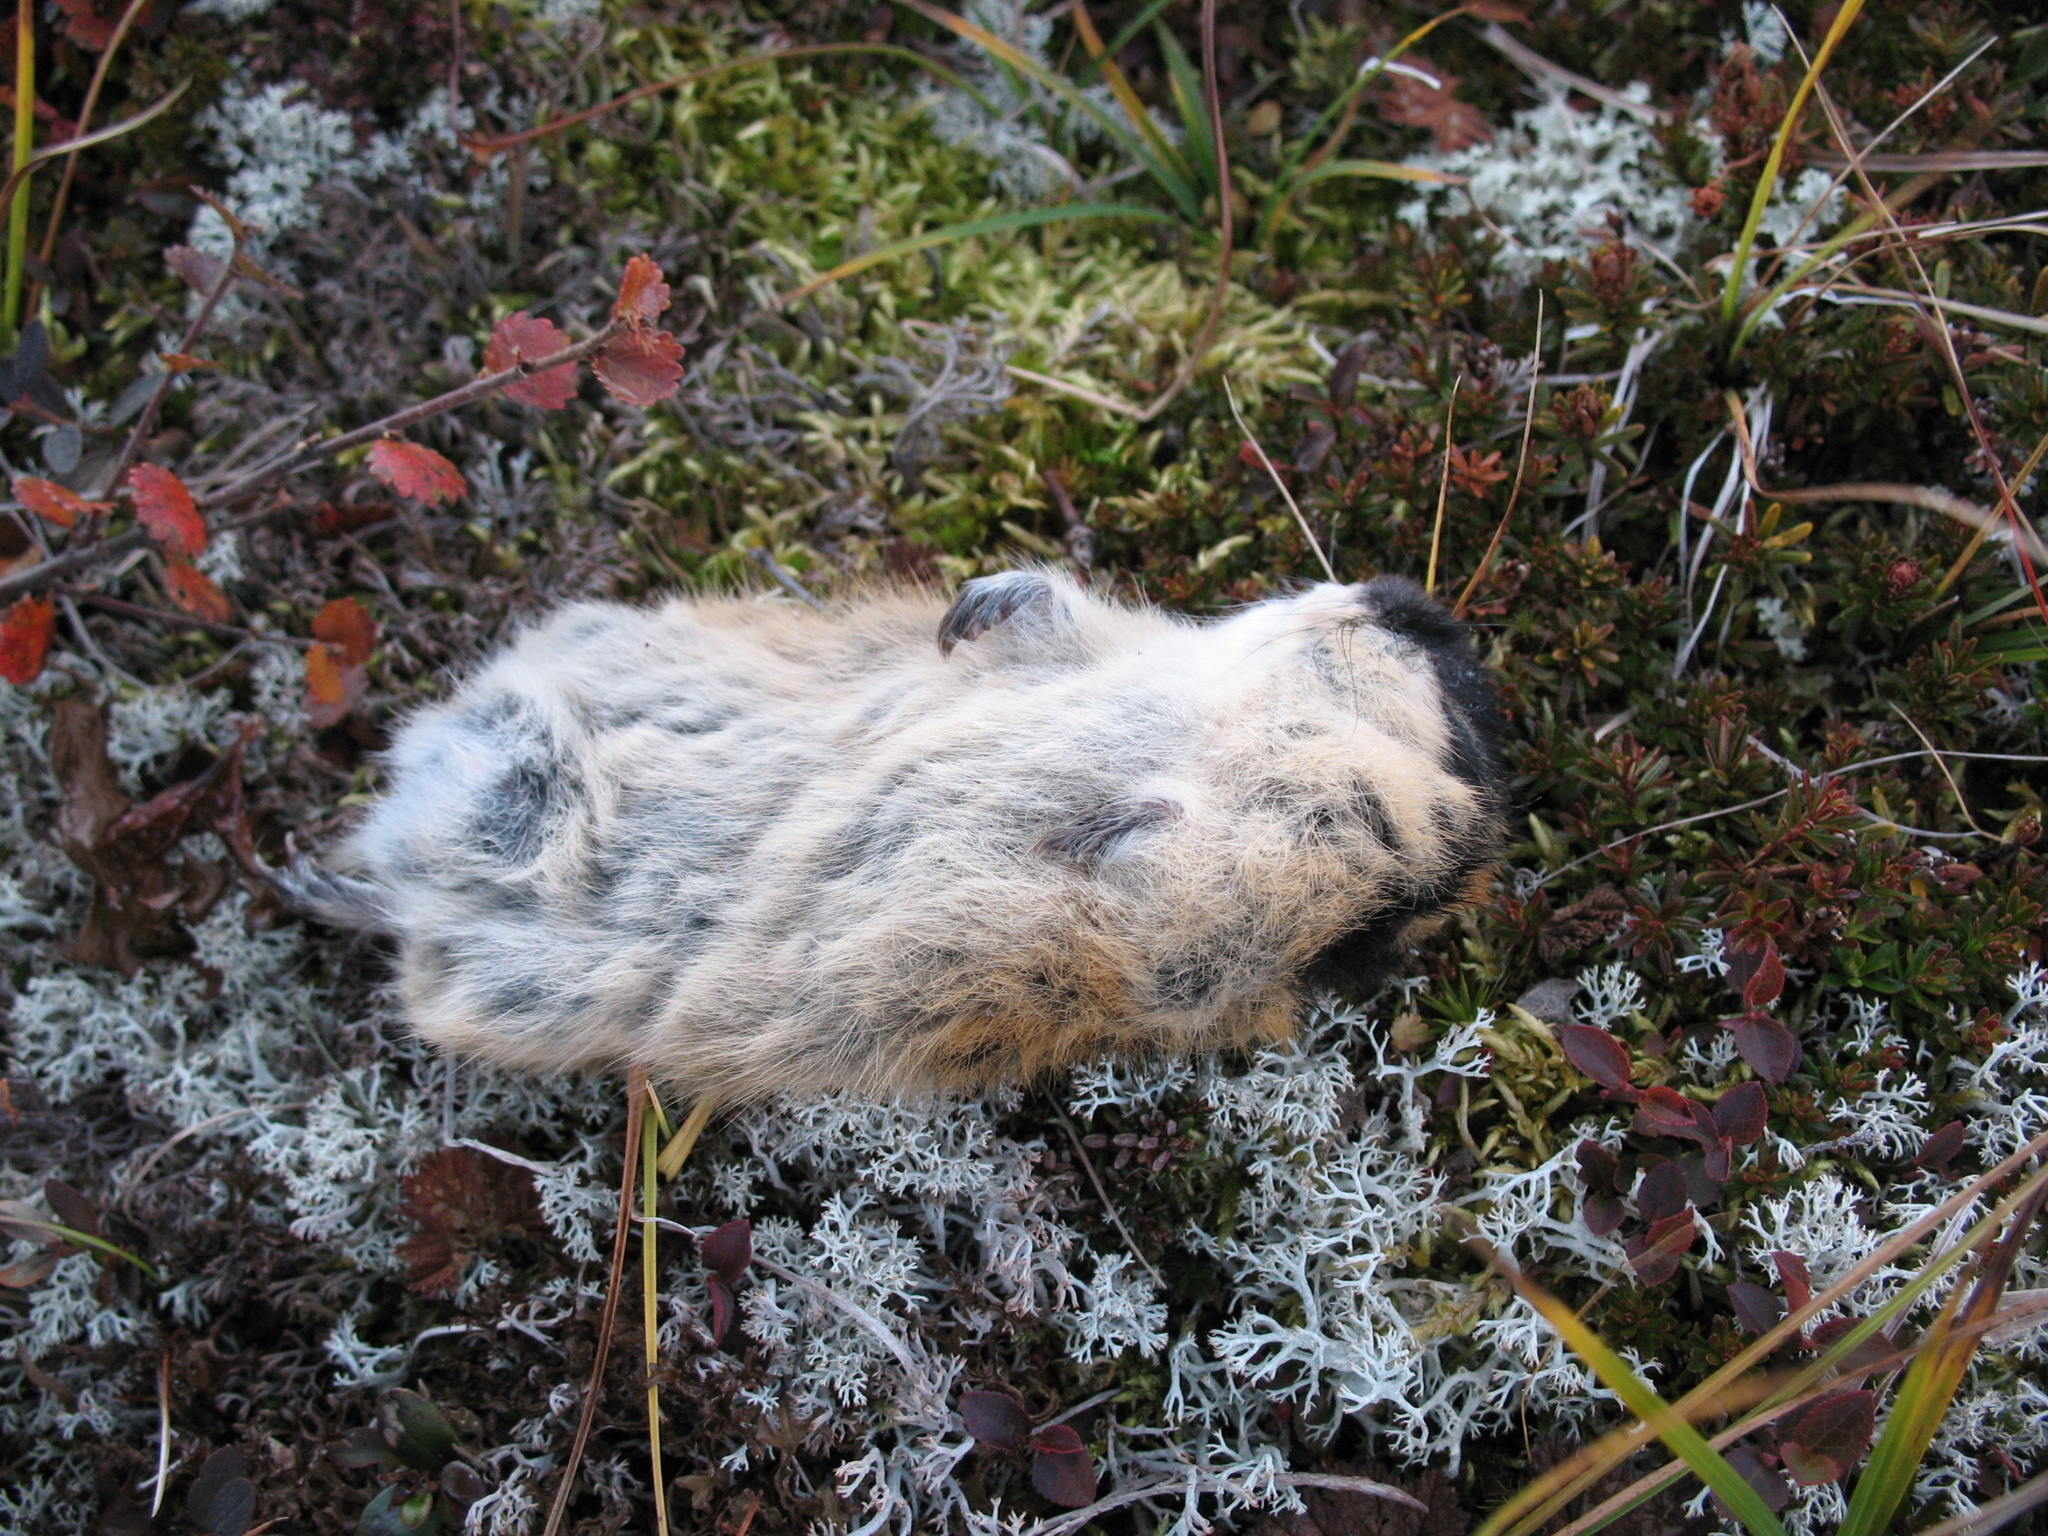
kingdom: Animalia
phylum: Chordata
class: Mammalia
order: Rodentia
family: Cricetidae
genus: Lemmus
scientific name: Lemmus lemmus
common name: Norway lemming
